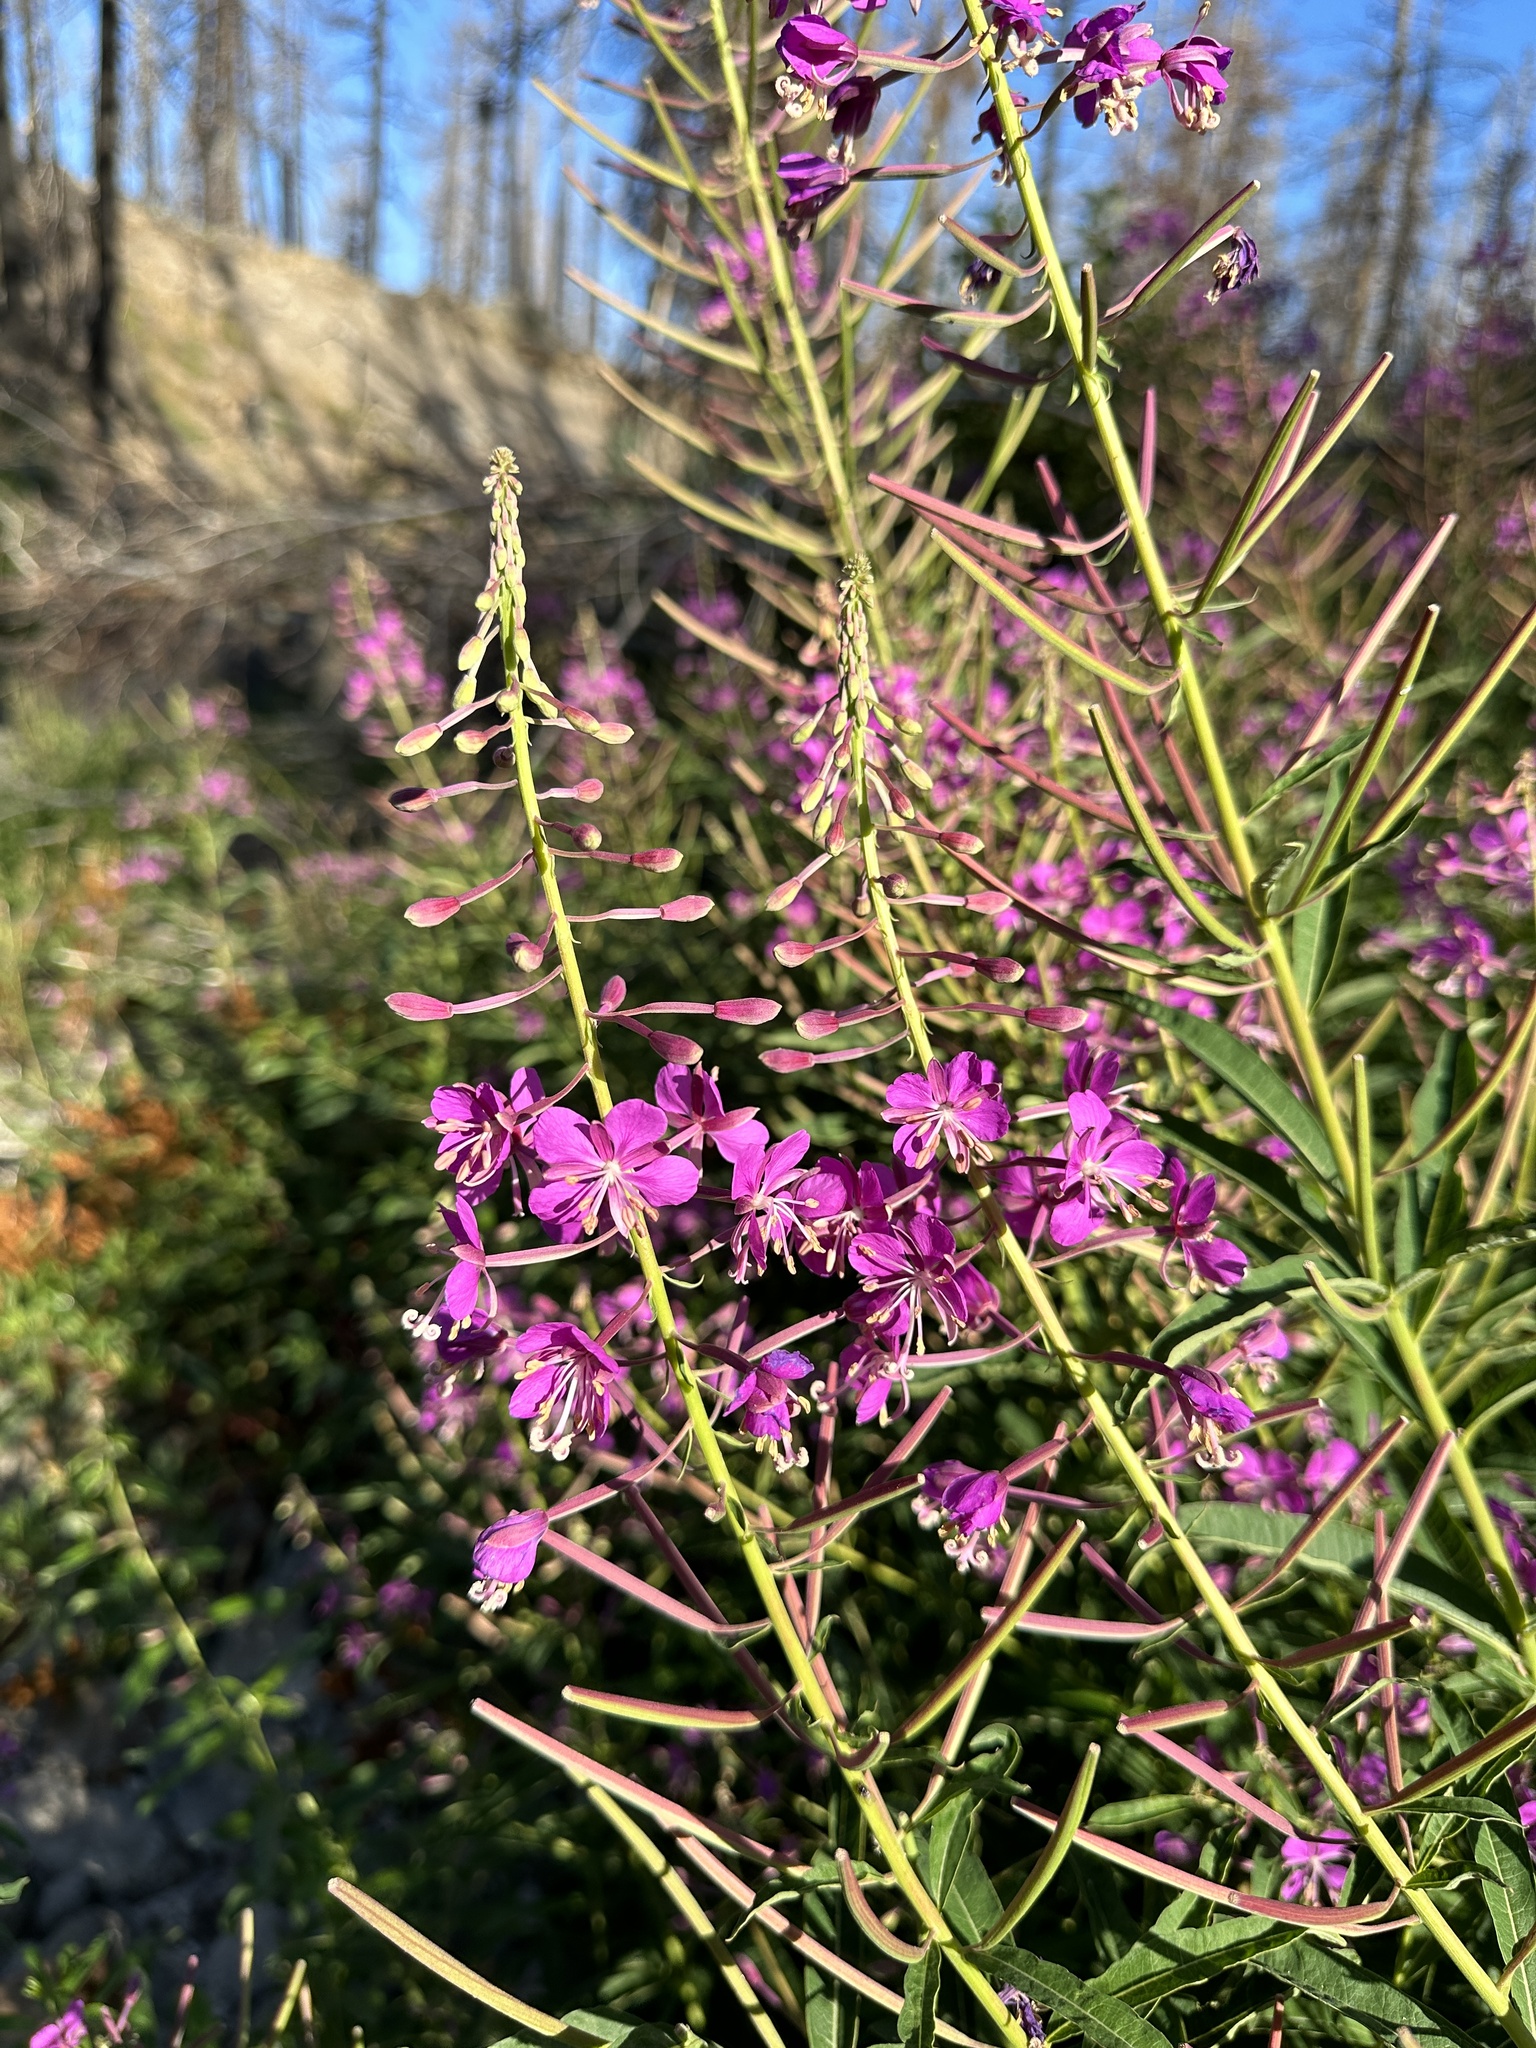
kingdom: Plantae
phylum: Tracheophyta
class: Magnoliopsida
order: Myrtales
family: Onagraceae
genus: Chamaenerion
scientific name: Chamaenerion angustifolium
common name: Fireweed
